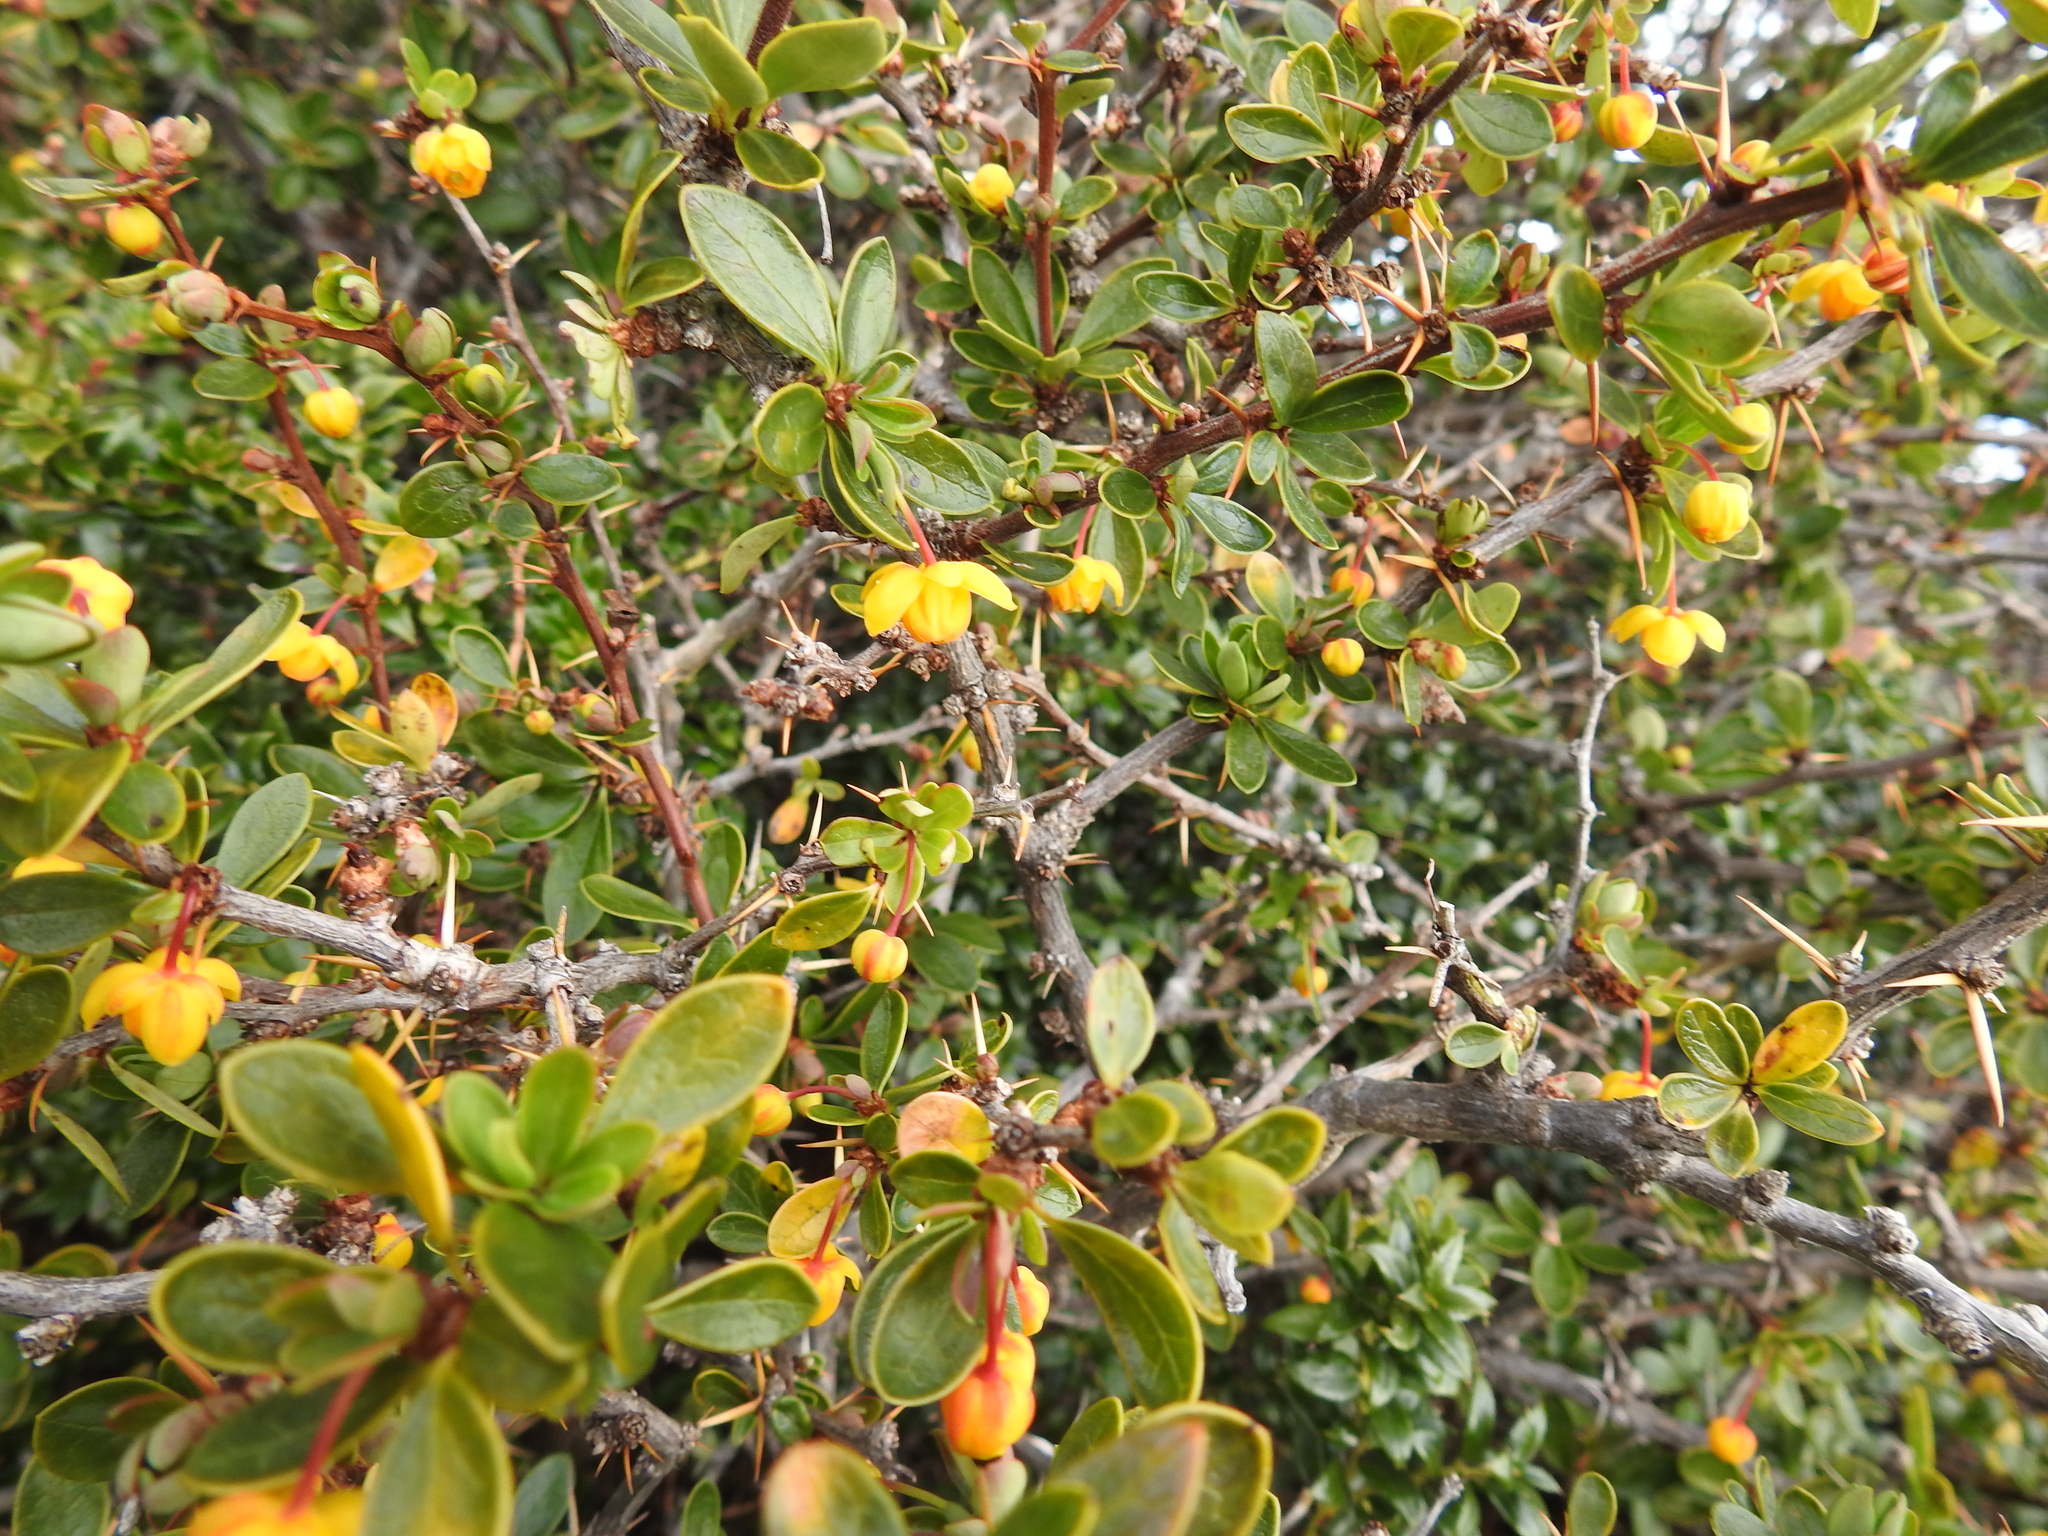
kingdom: Plantae
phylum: Tracheophyta
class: Magnoliopsida
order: Ranunculales
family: Berberidaceae
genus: Berberis
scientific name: Berberis microphylla
